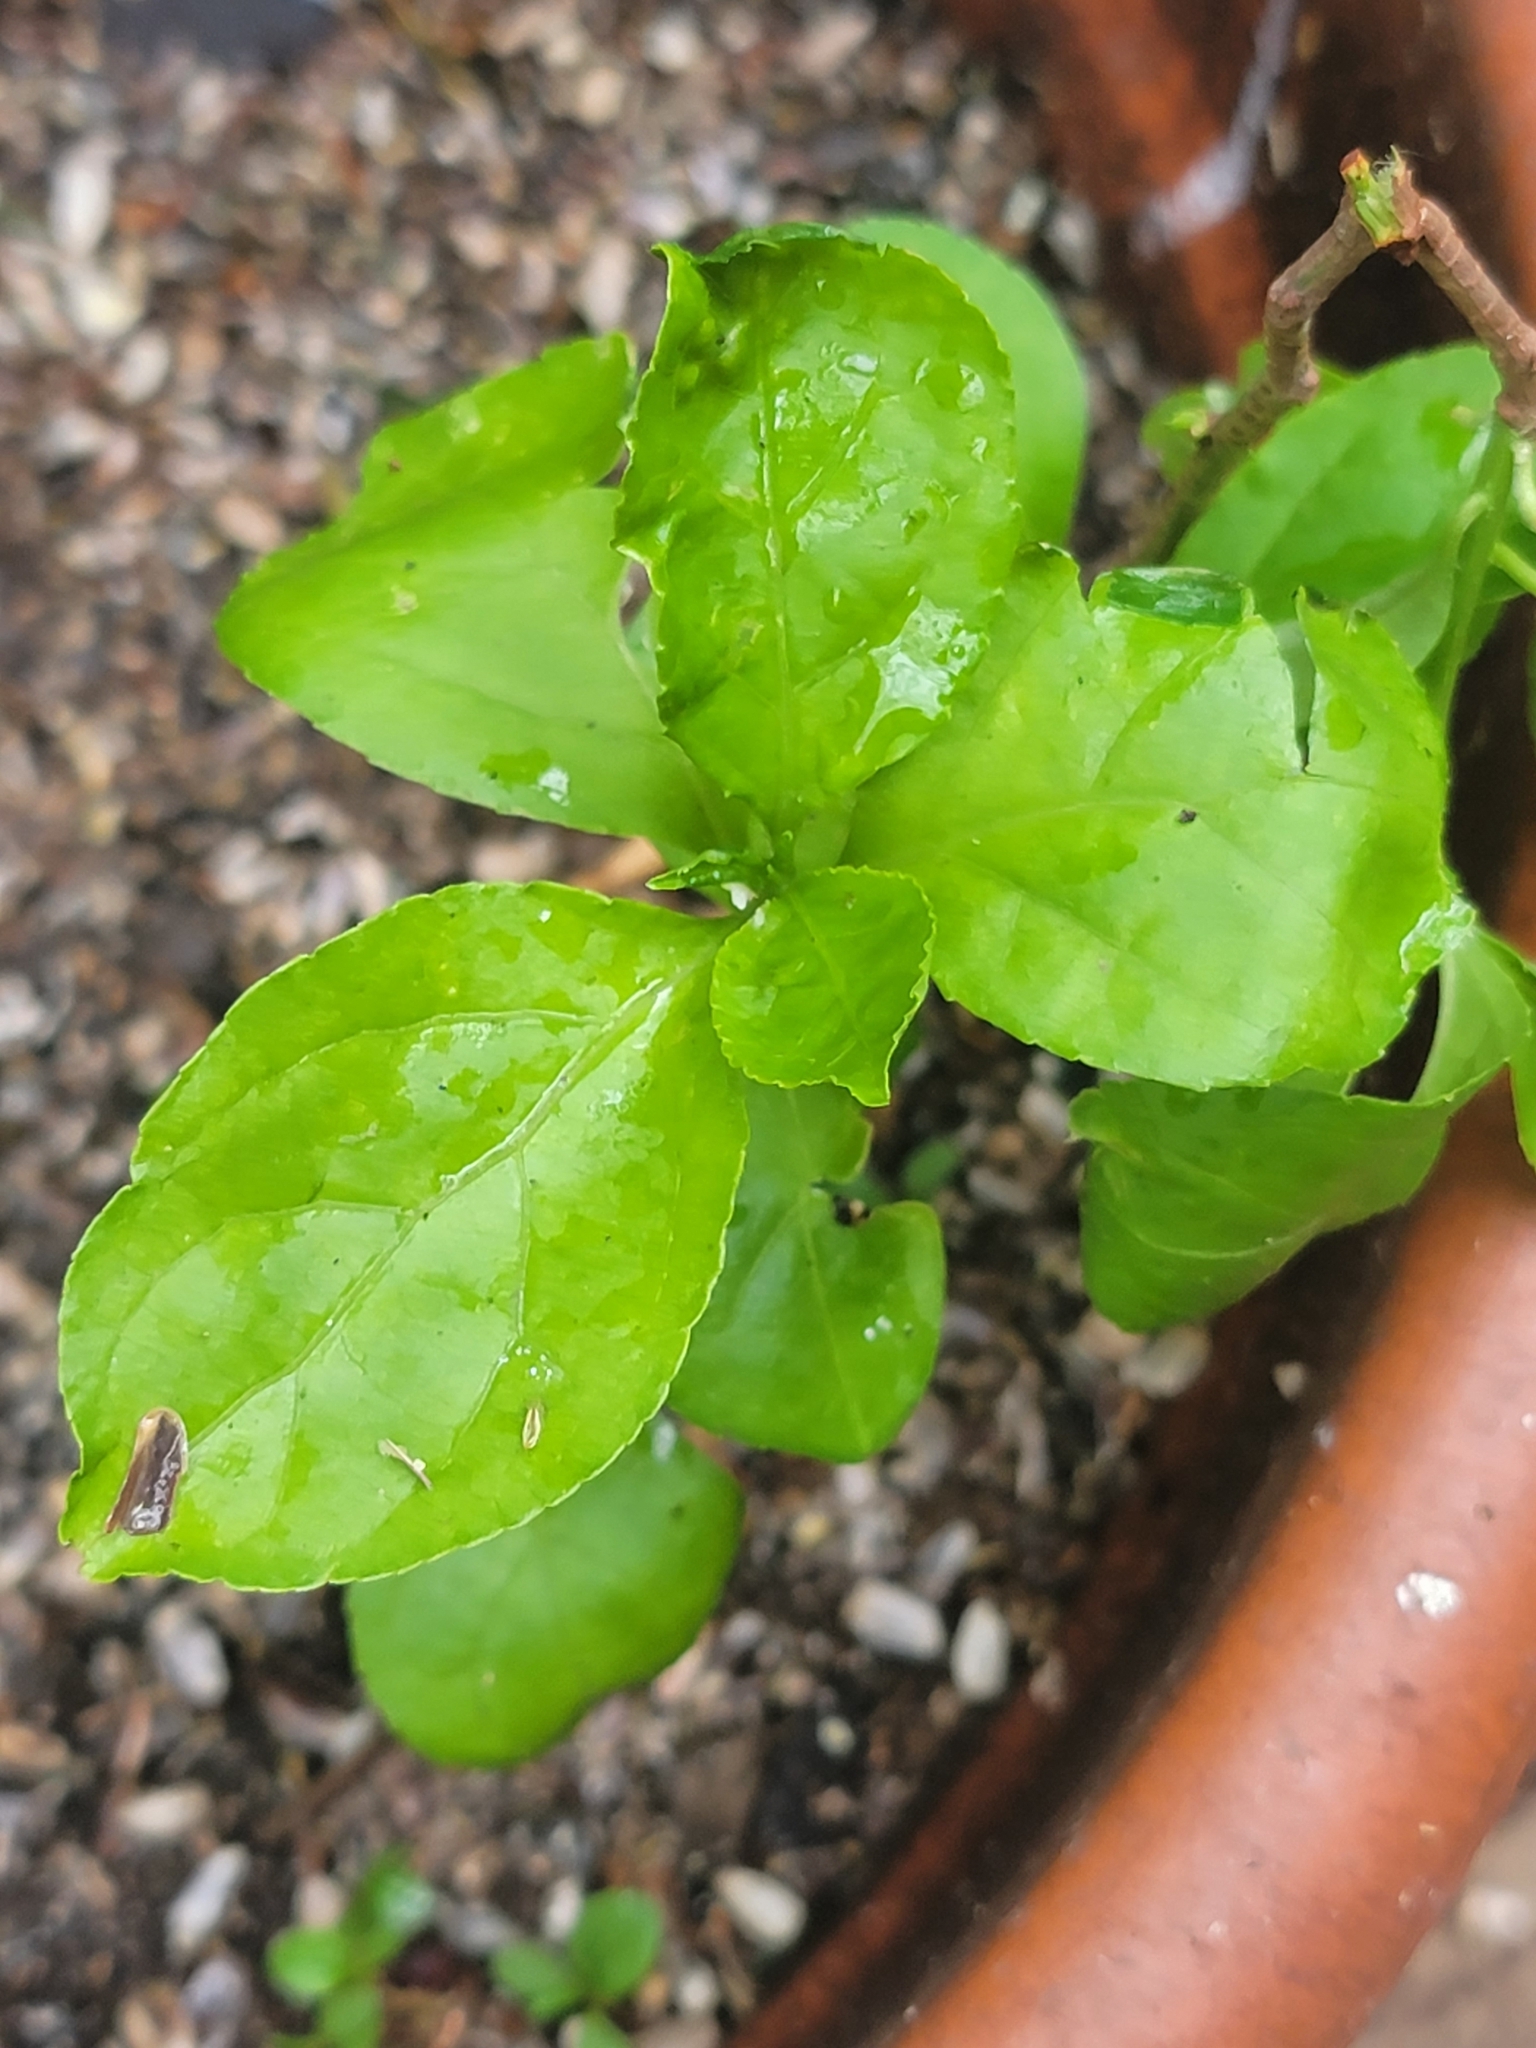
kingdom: Plantae
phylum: Tracheophyta
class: Magnoliopsida
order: Celastrales
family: Celastraceae
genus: Celastrus
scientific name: Celastrus orbiculatus
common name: Oriental bittersweet
